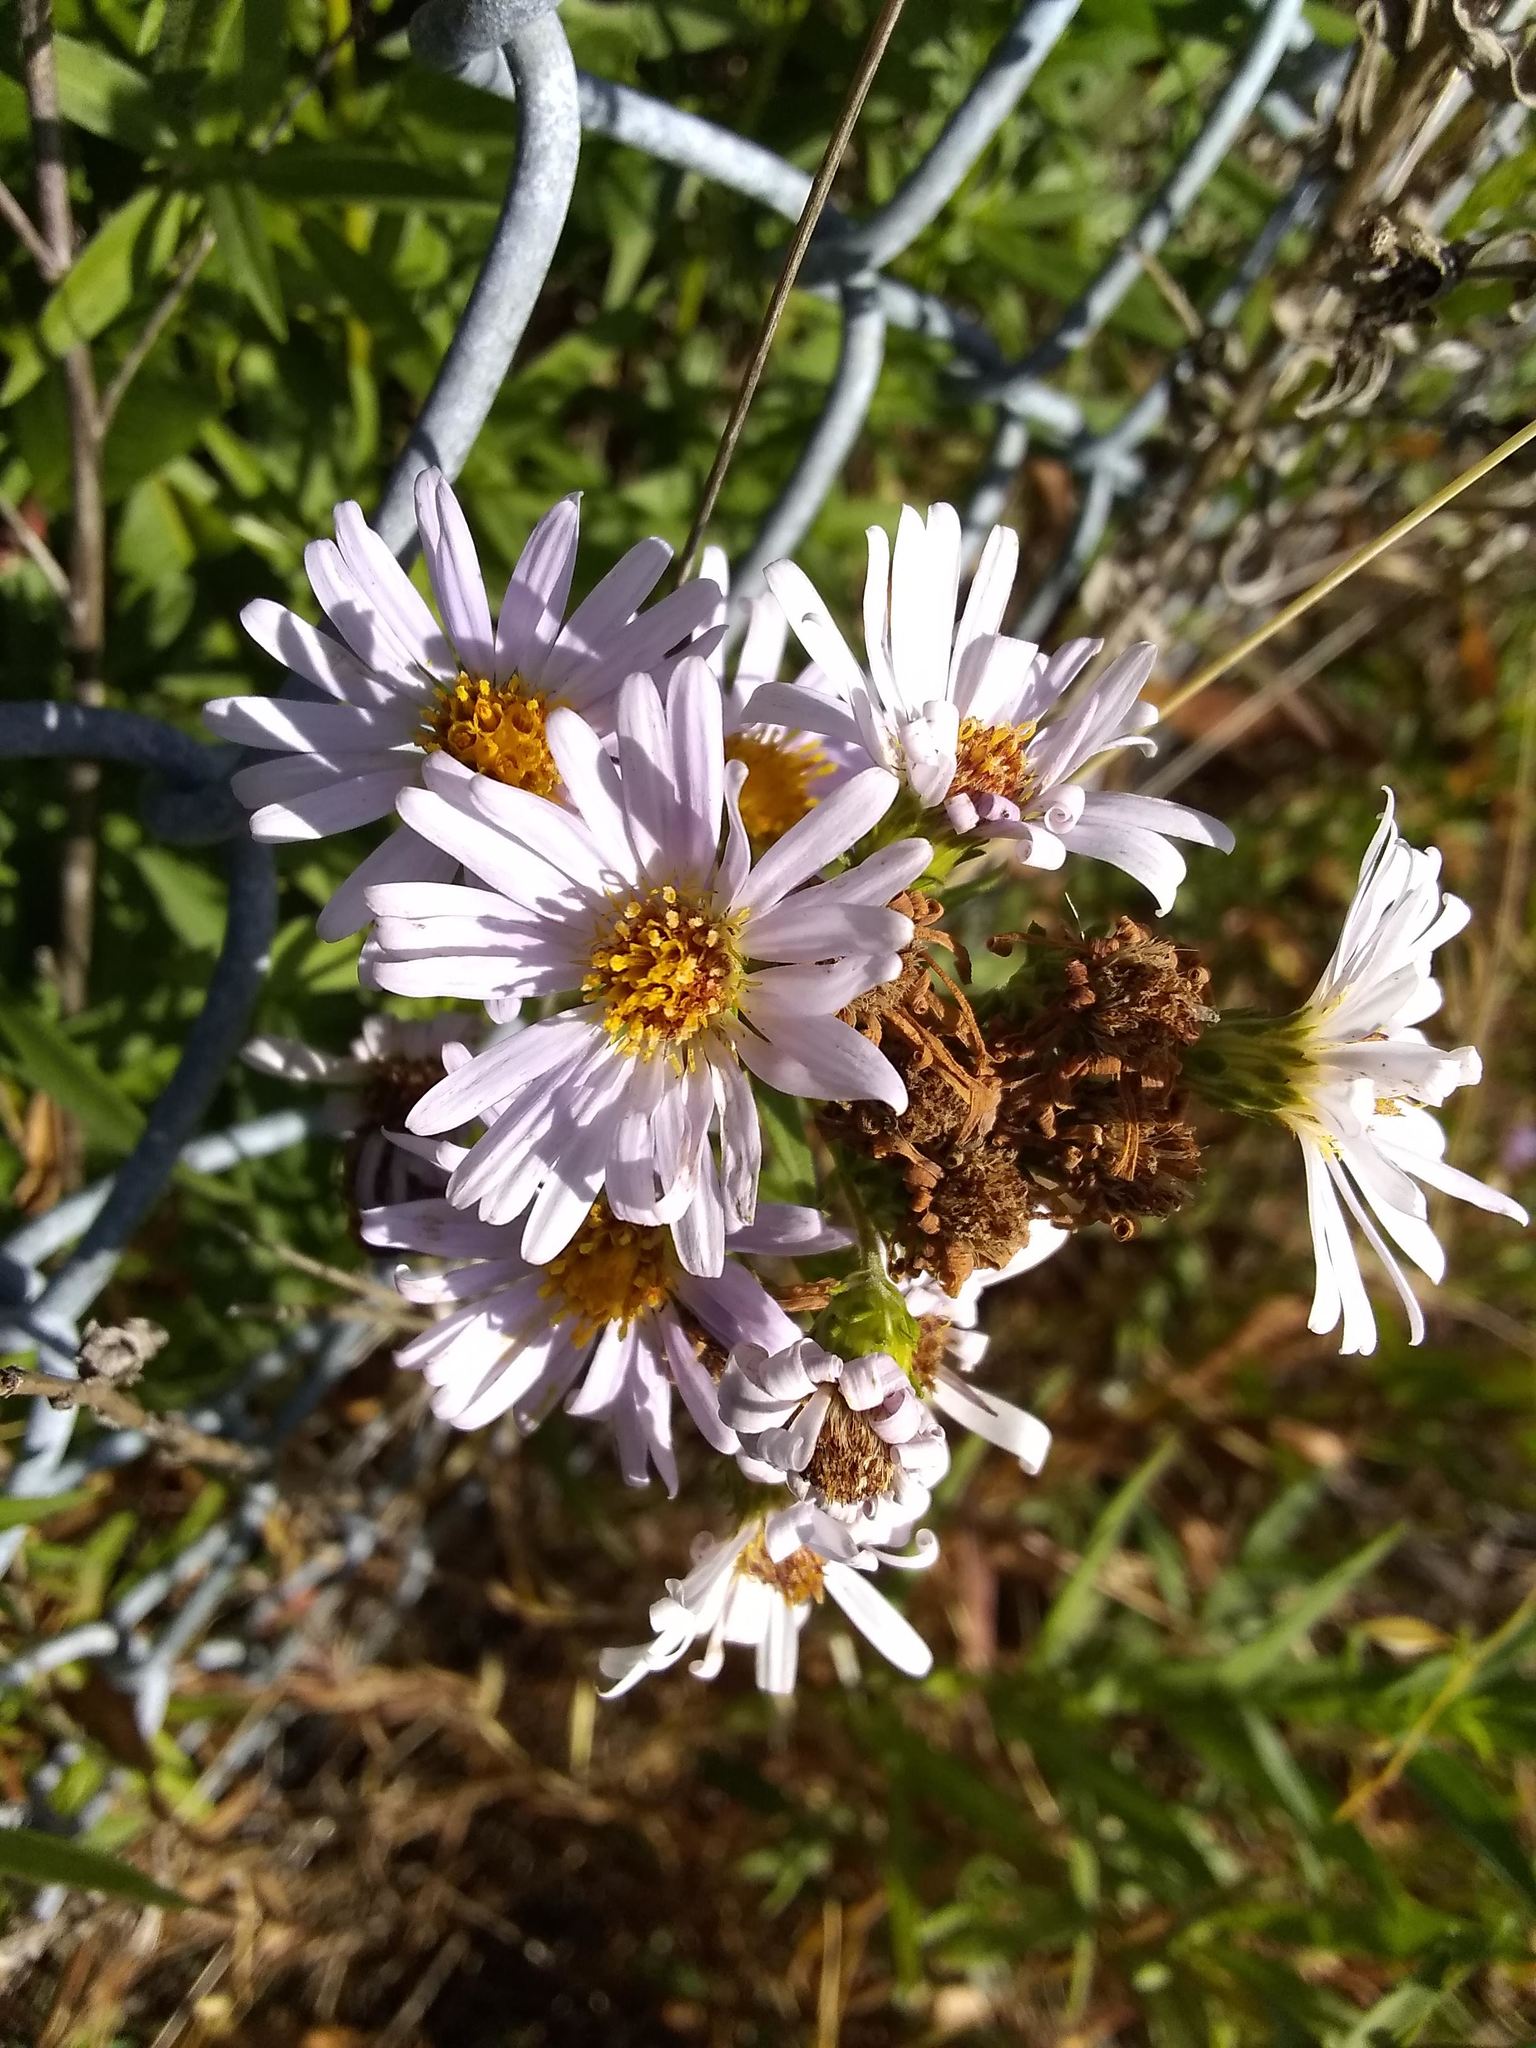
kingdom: Plantae
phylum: Tracheophyta
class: Magnoliopsida
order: Asterales
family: Asteraceae
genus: Symphyotrichum
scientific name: Symphyotrichum chilense
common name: Pacific aster
